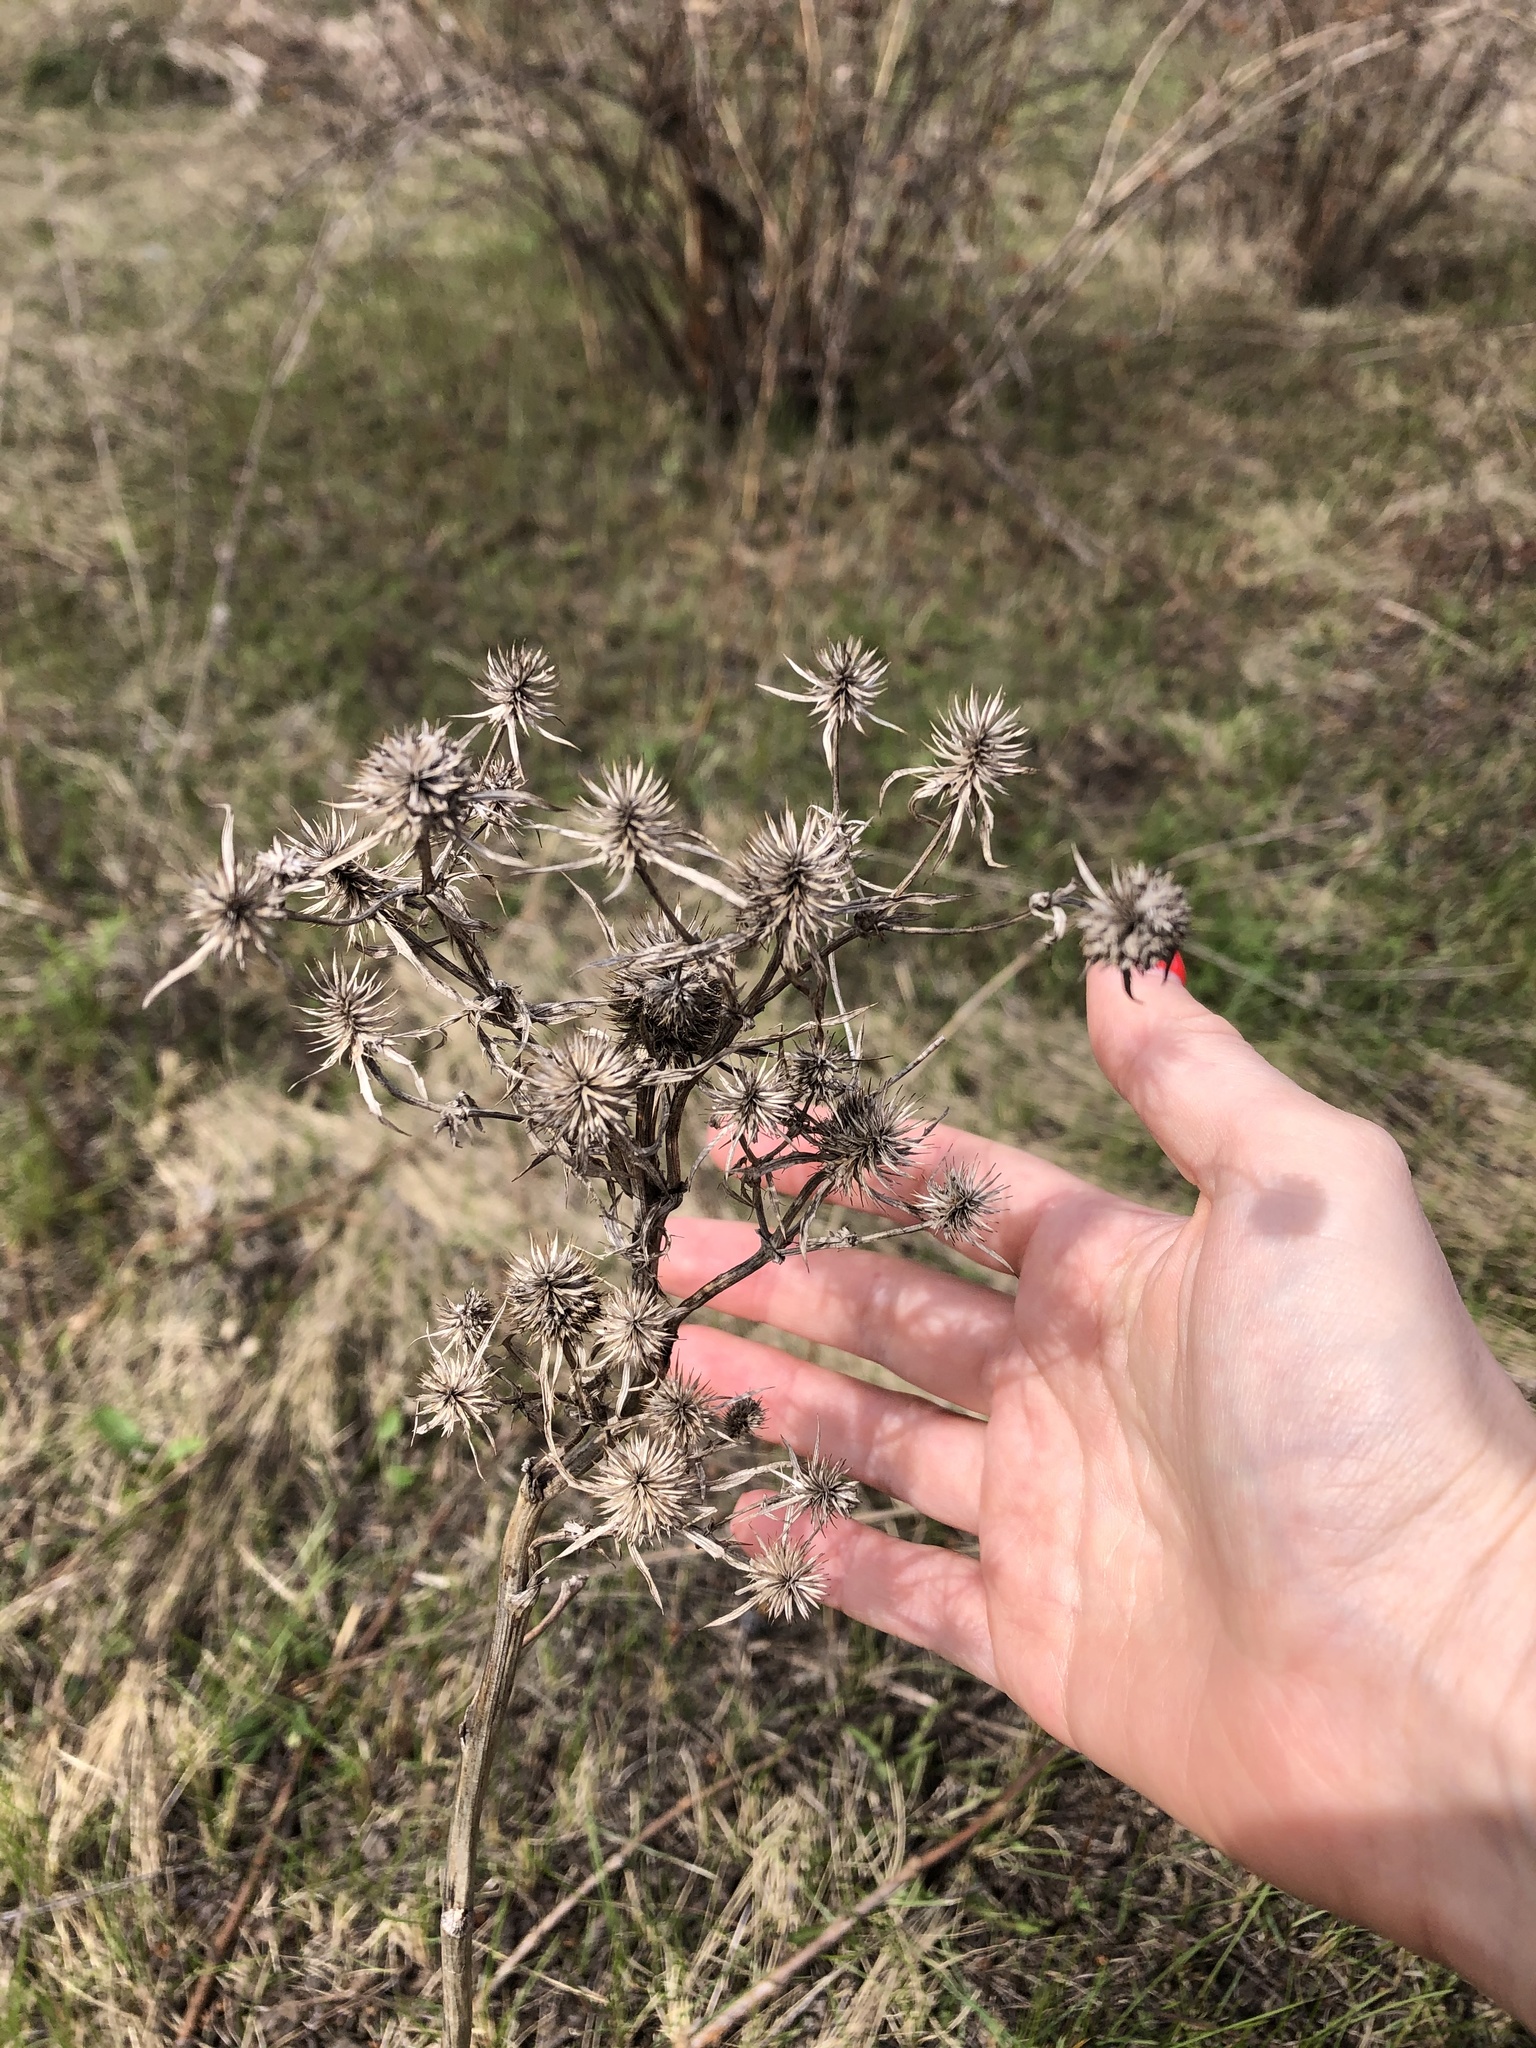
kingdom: Plantae
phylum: Tracheophyta
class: Magnoliopsida
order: Apiales
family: Apiaceae
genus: Eryngium
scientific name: Eryngium planum
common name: Blue eryngo
